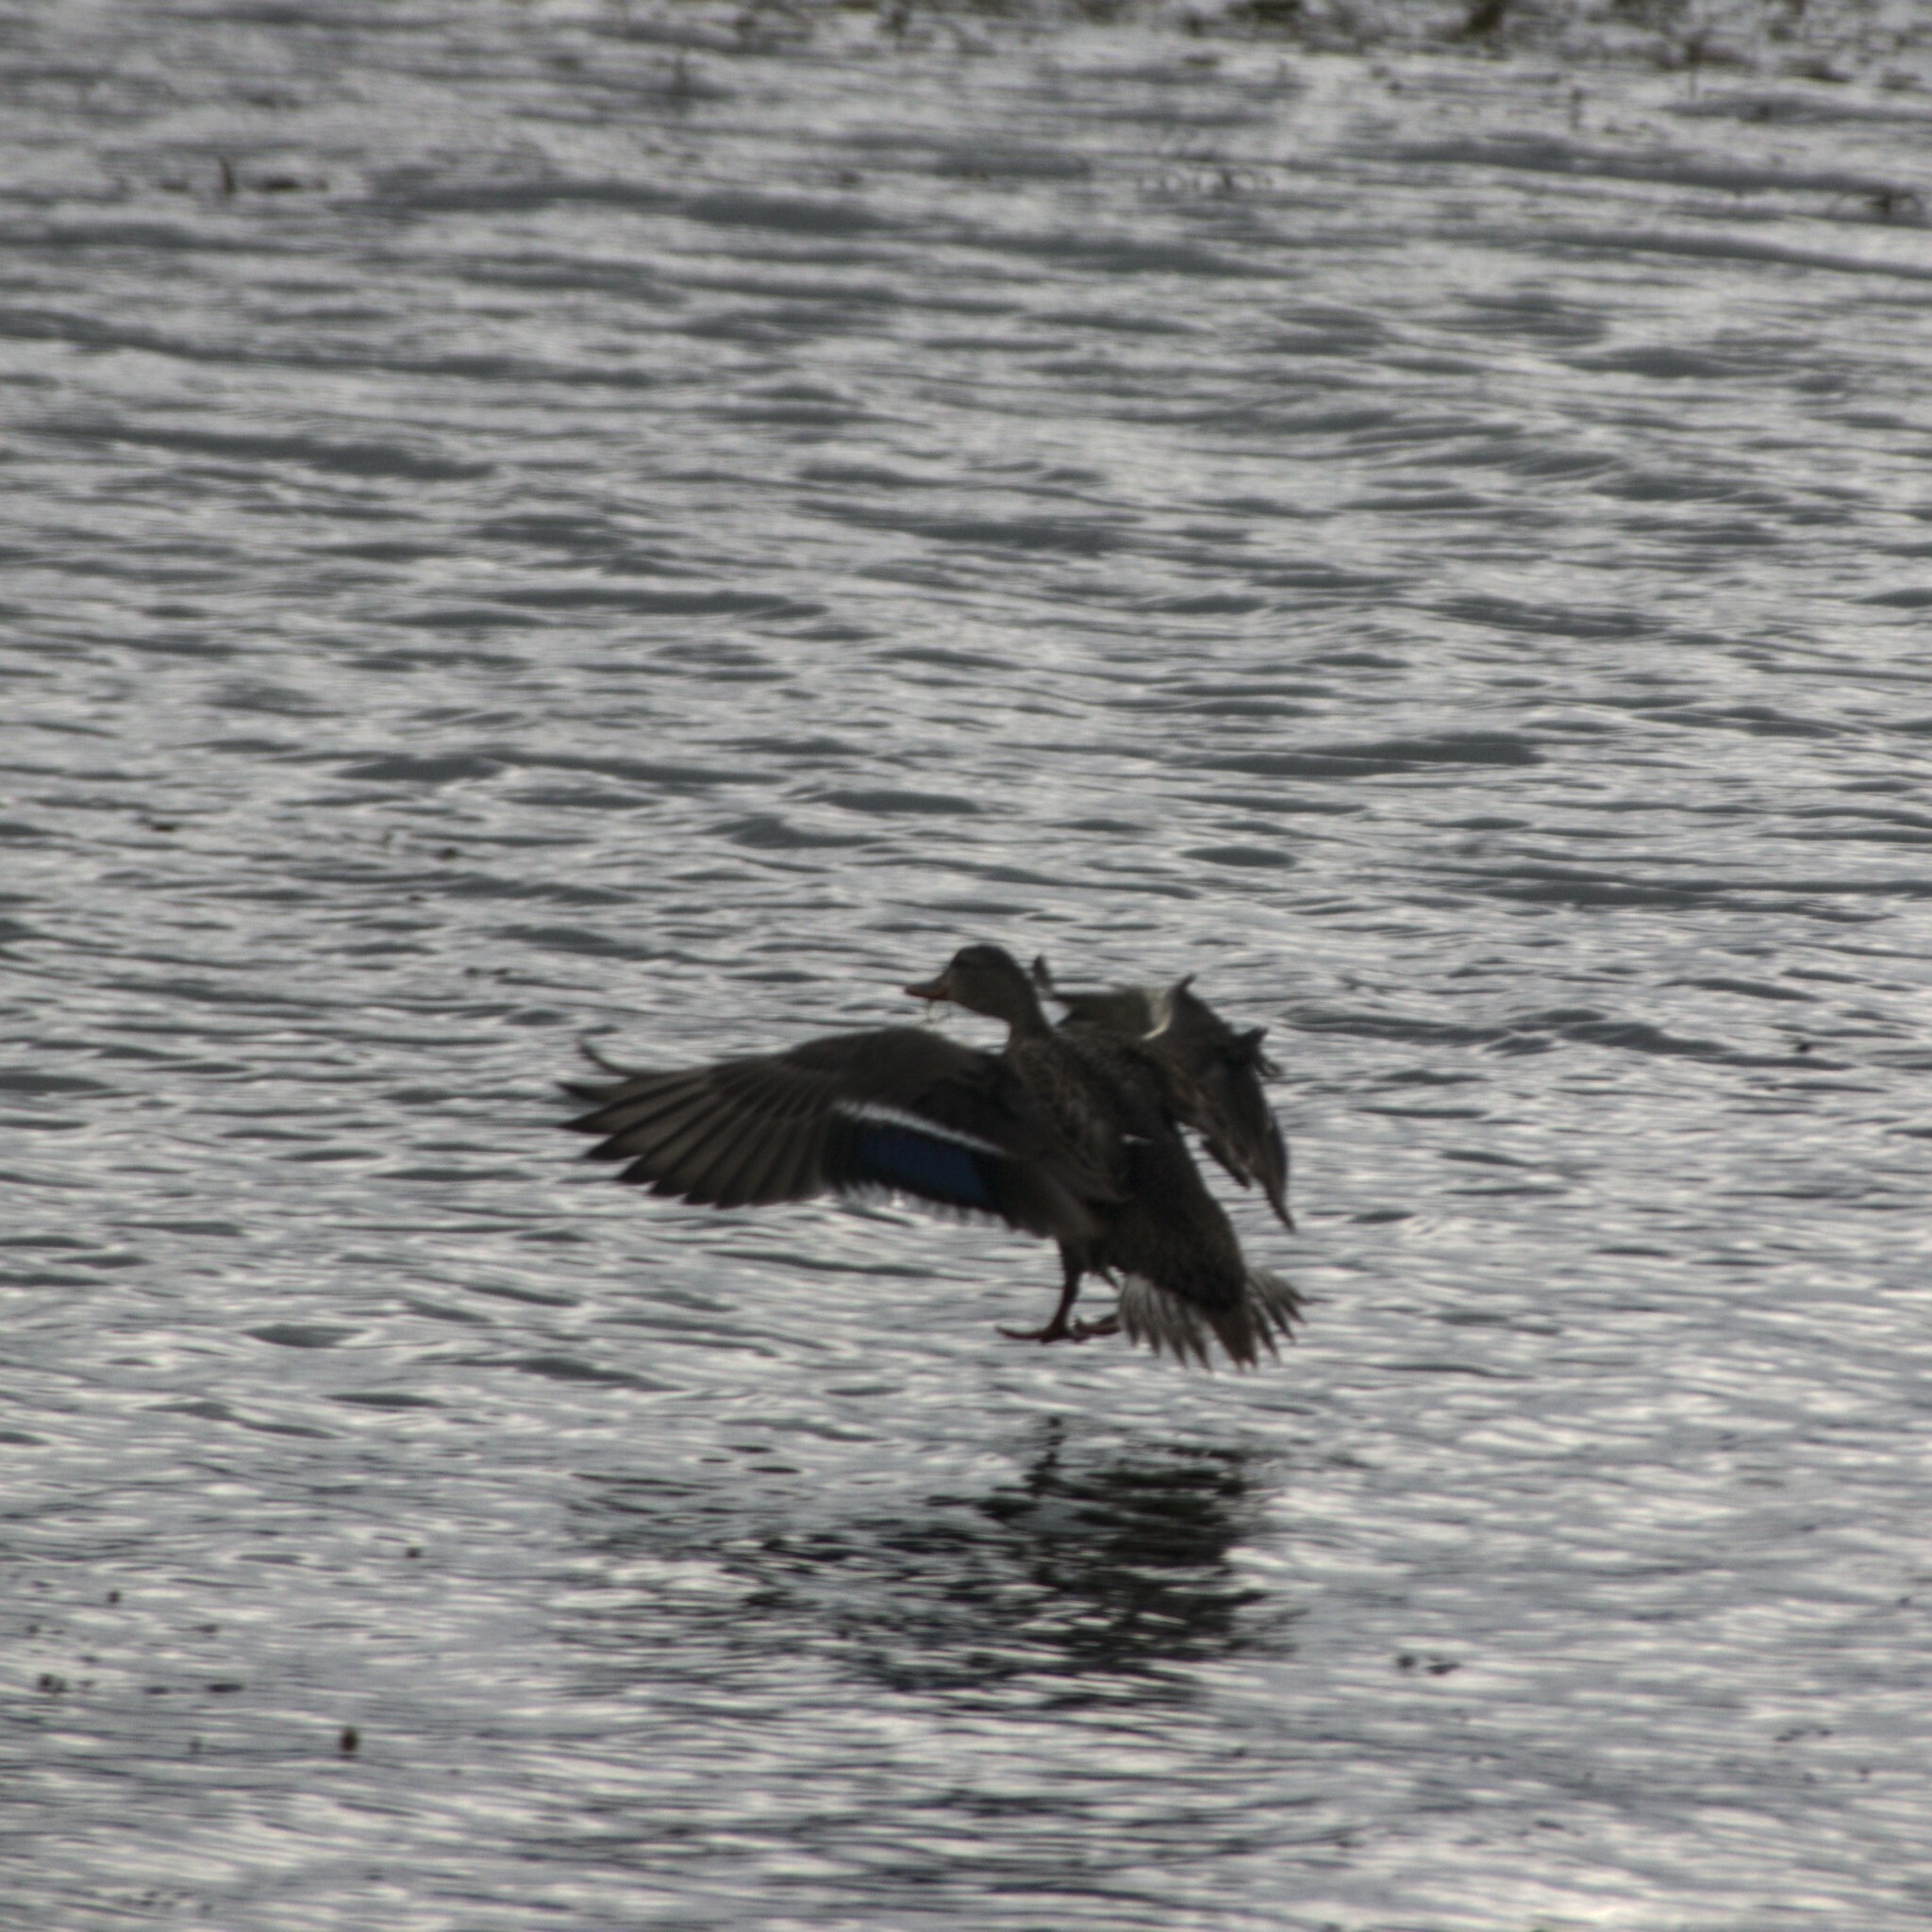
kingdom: Animalia
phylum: Chordata
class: Aves
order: Anseriformes
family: Anatidae
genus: Anas
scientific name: Anas platyrhynchos
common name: Mallard
